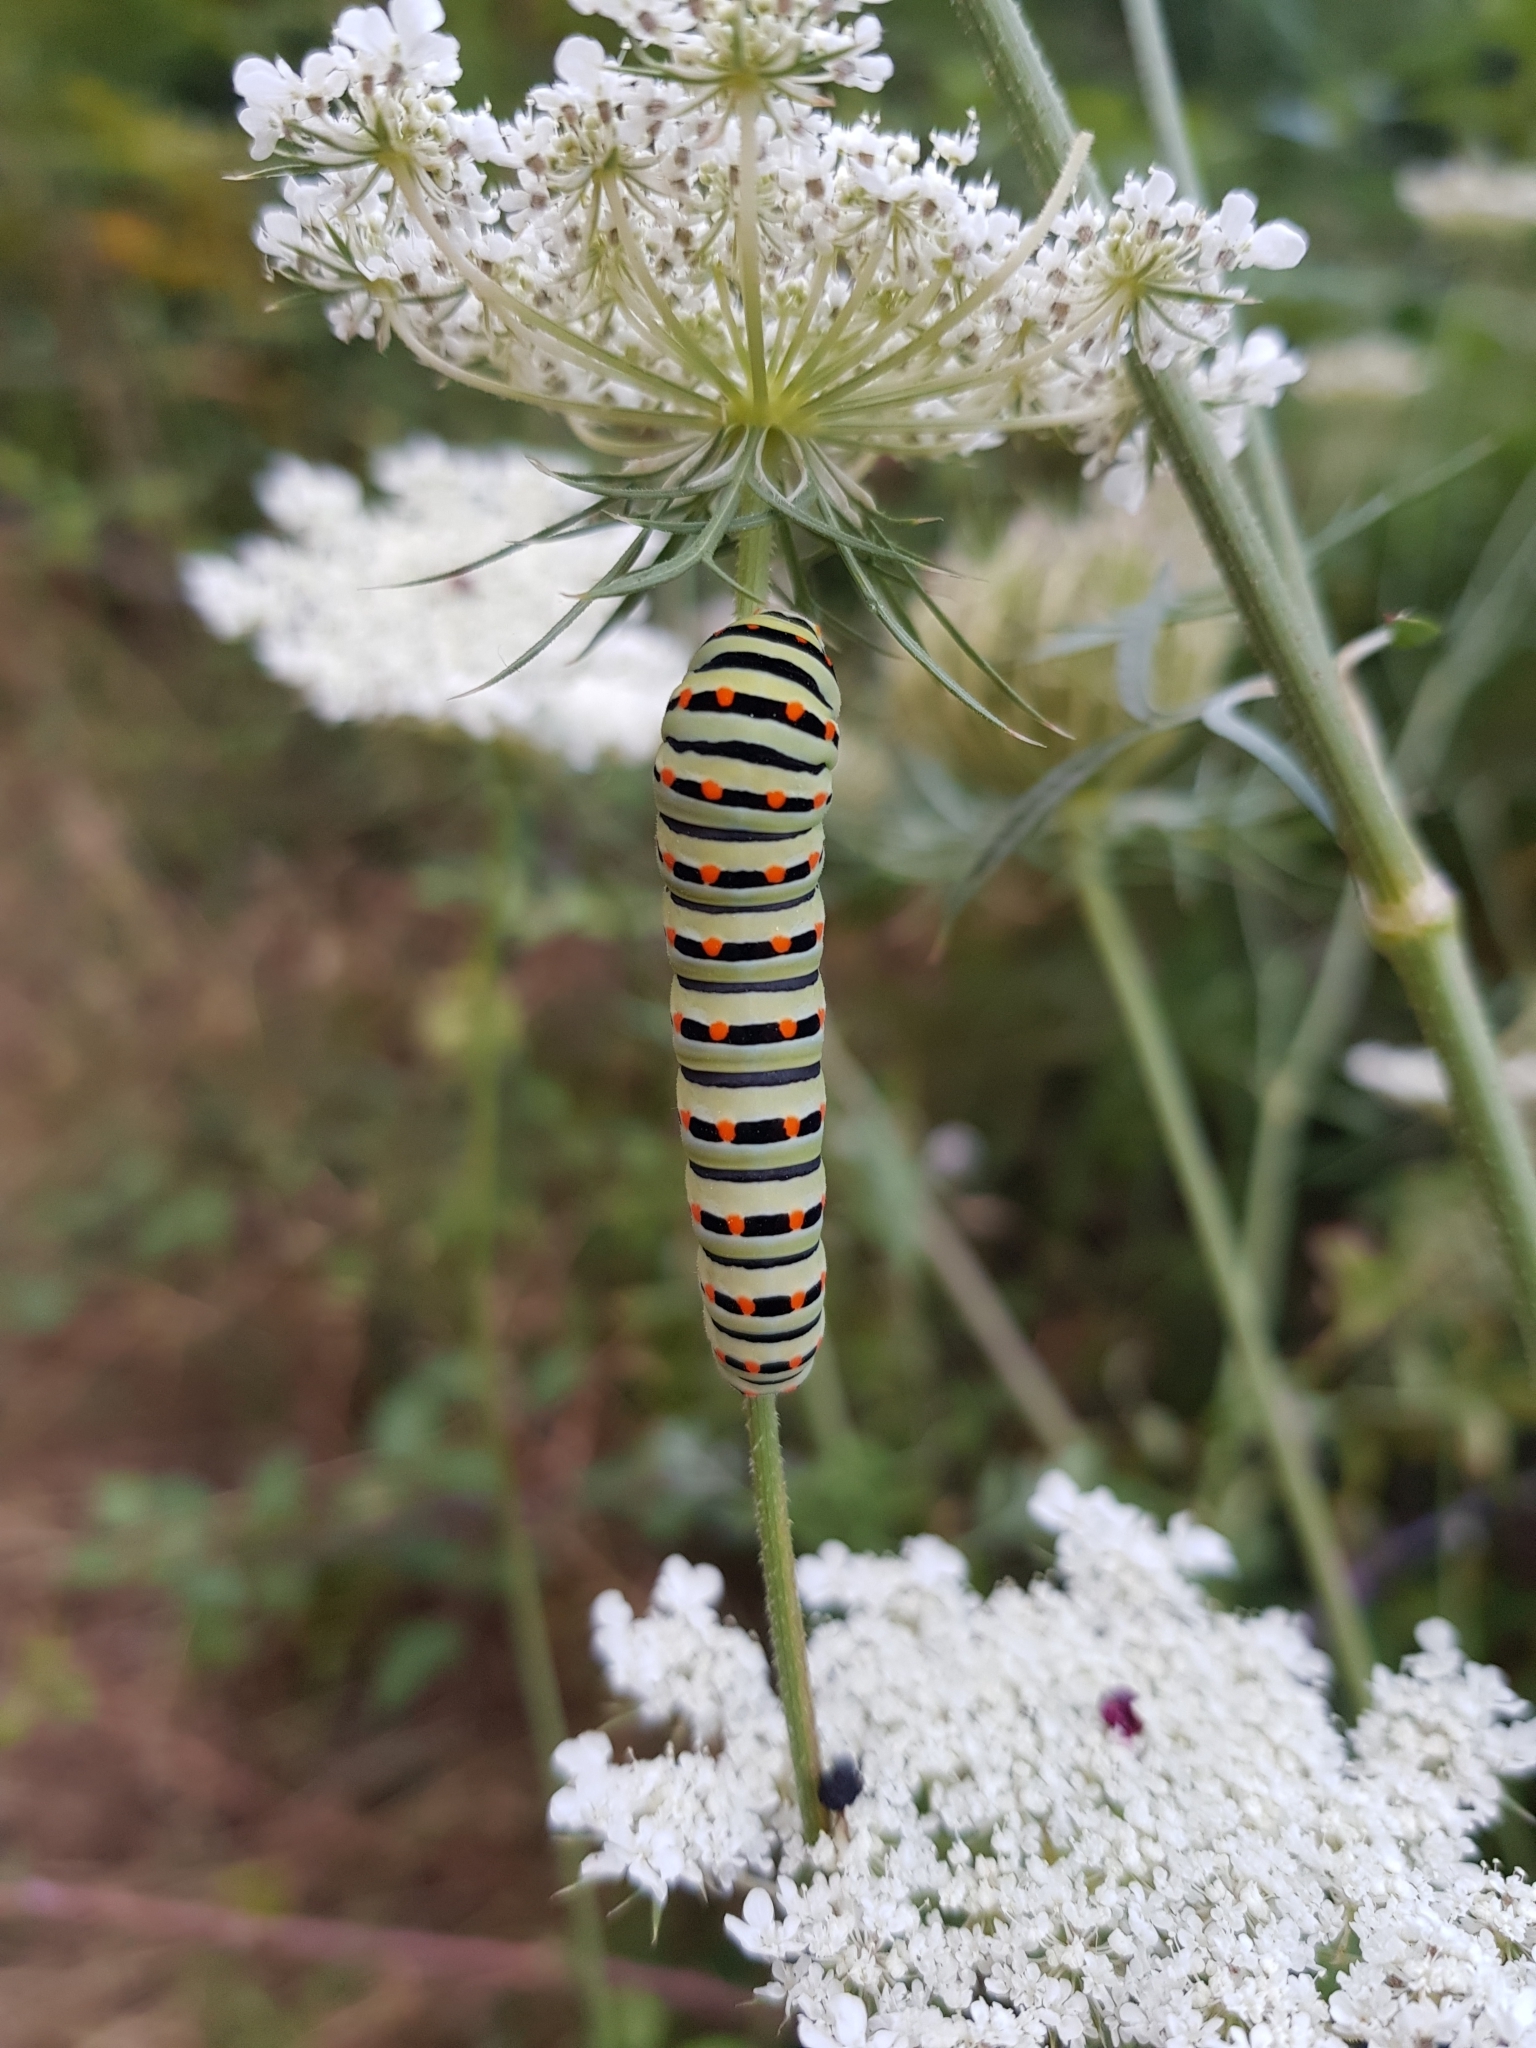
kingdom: Animalia
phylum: Arthropoda
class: Insecta
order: Lepidoptera
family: Papilionidae
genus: Papilio
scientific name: Papilio machaon
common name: Swallowtail
